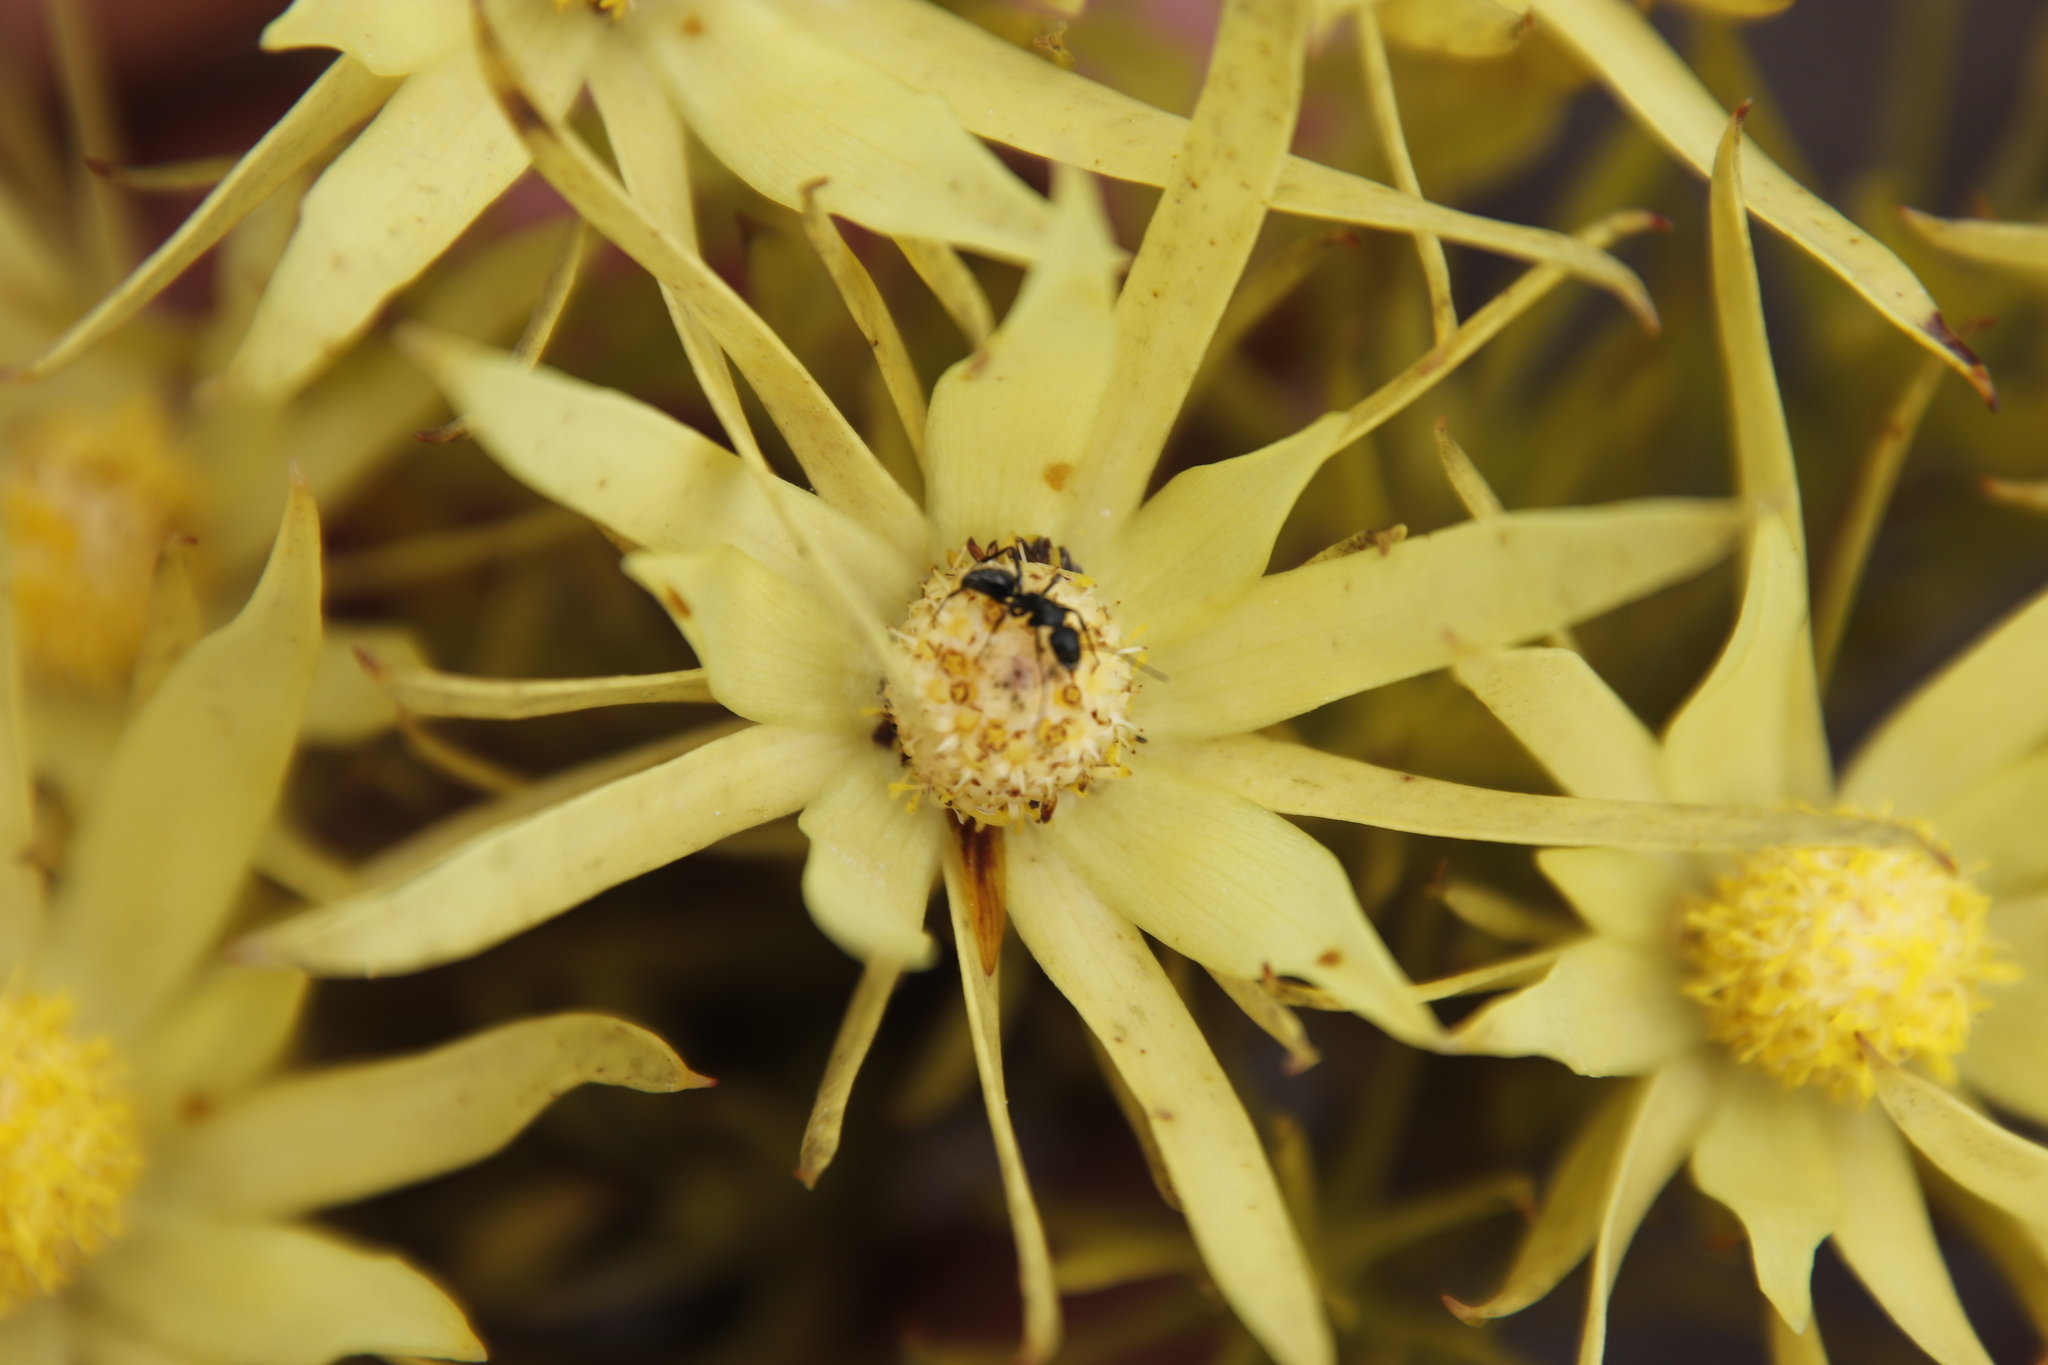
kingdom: Plantae
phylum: Tracheophyta
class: Magnoliopsida
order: Proteales
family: Proteaceae
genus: Leucadendron
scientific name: Leucadendron xanthoconus
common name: Sickle-leaf conebush
